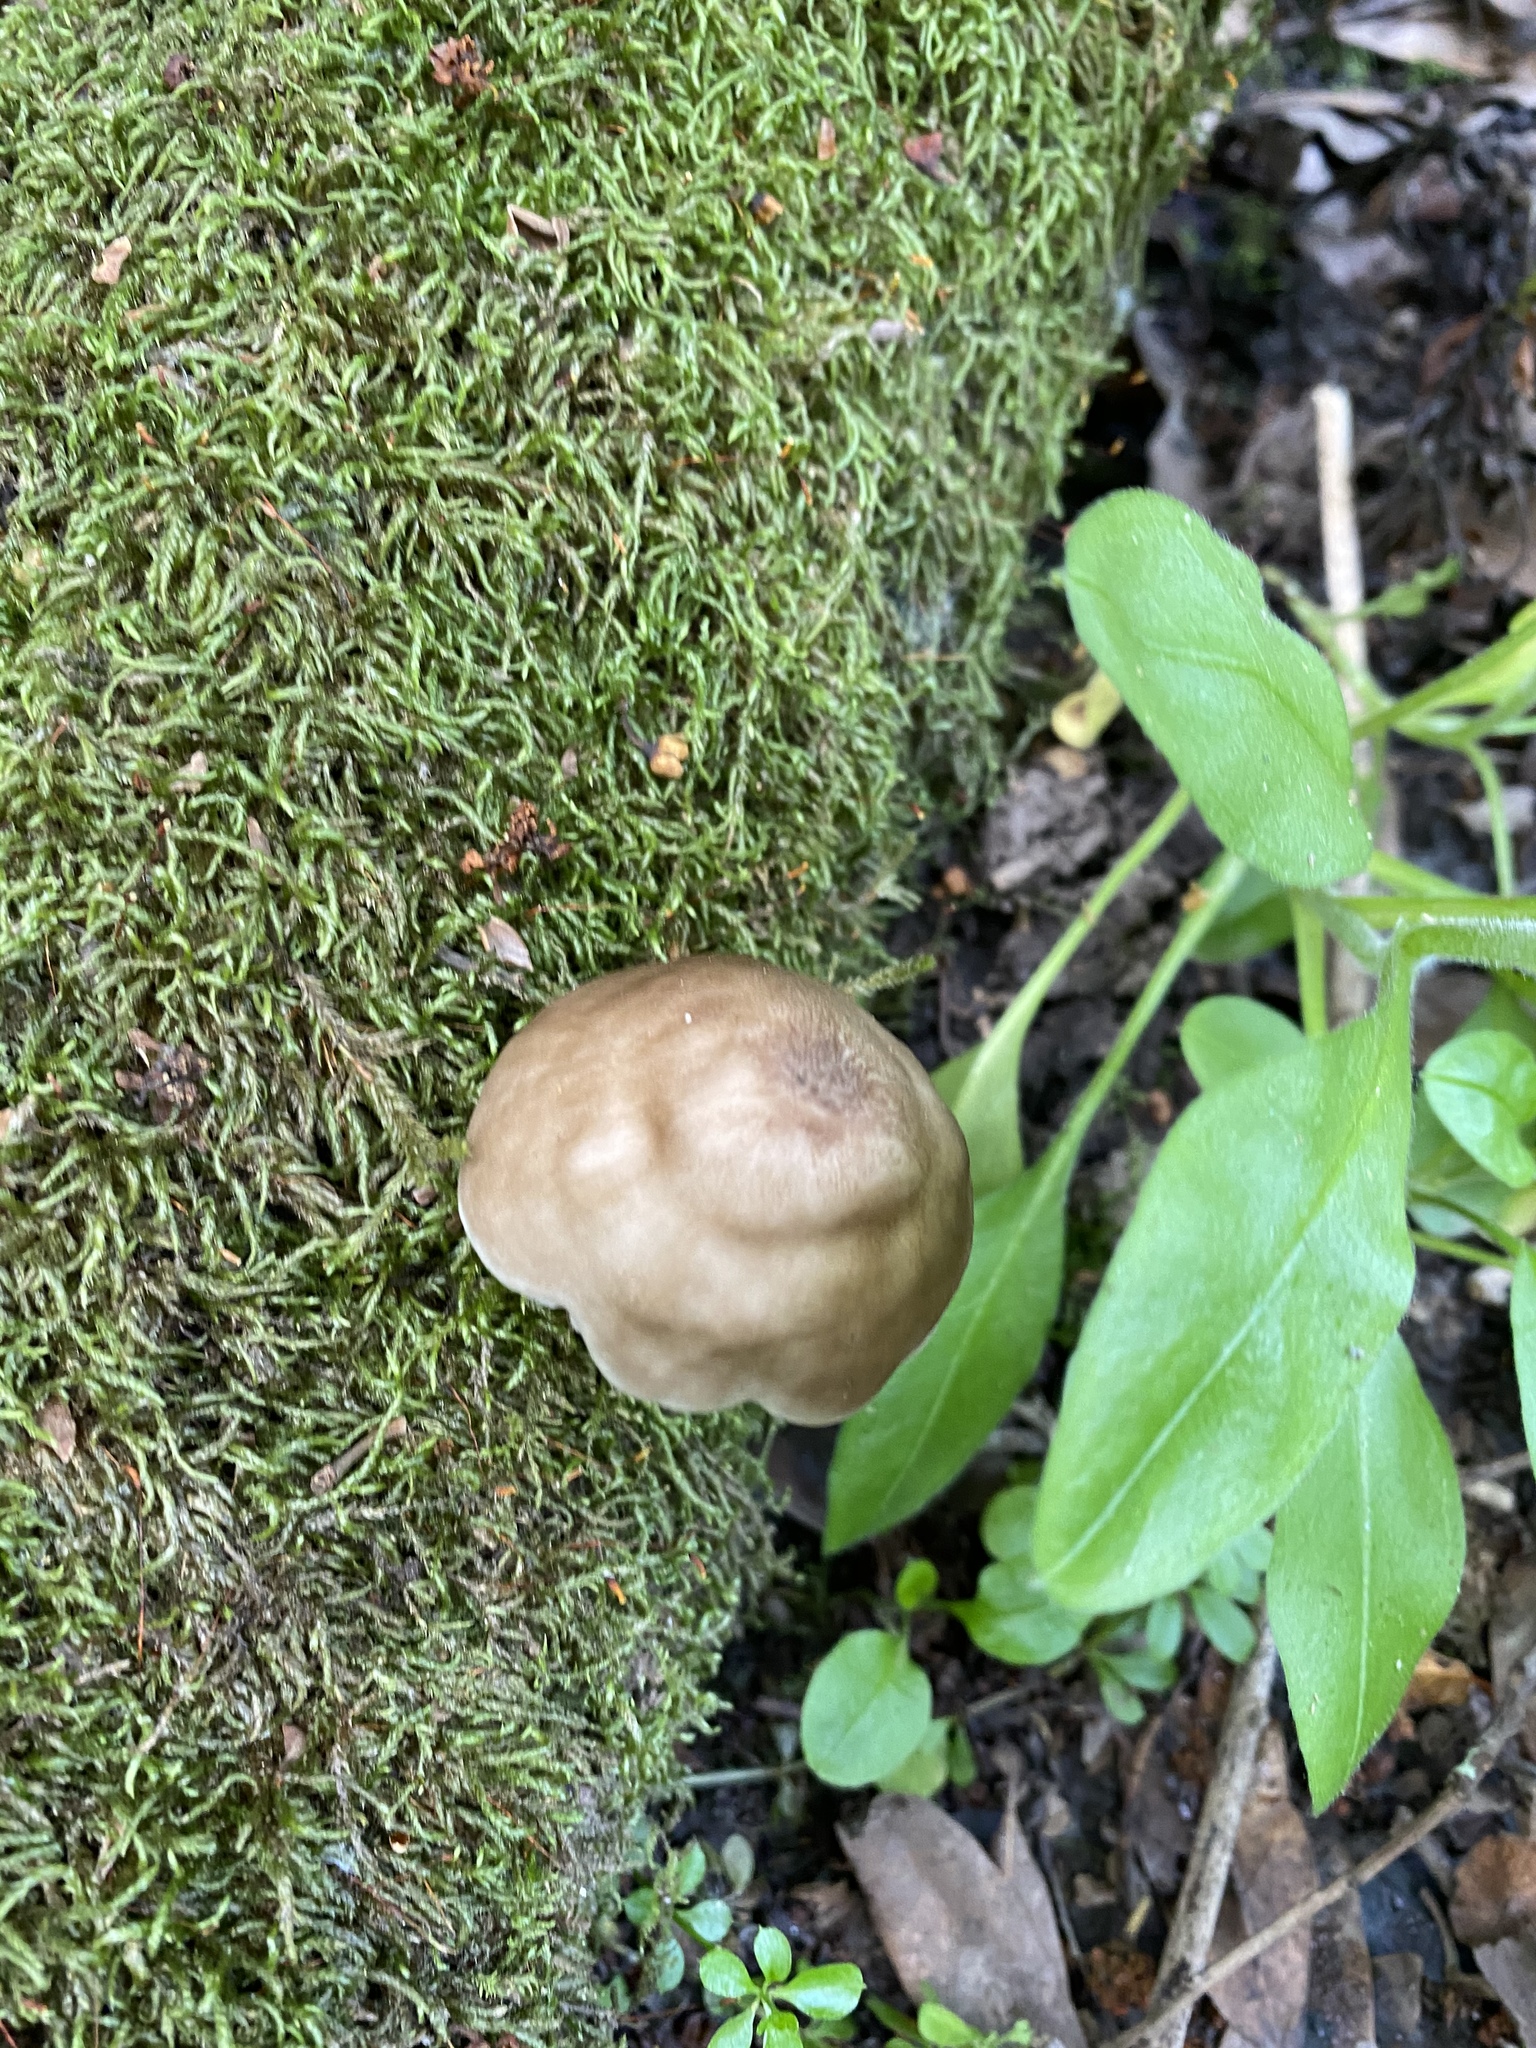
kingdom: Fungi
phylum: Basidiomycota
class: Agaricomycetes
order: Agaricales
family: Pluteaceae
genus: Pluteus
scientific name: Pluteus cervinus
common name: Deer shield
